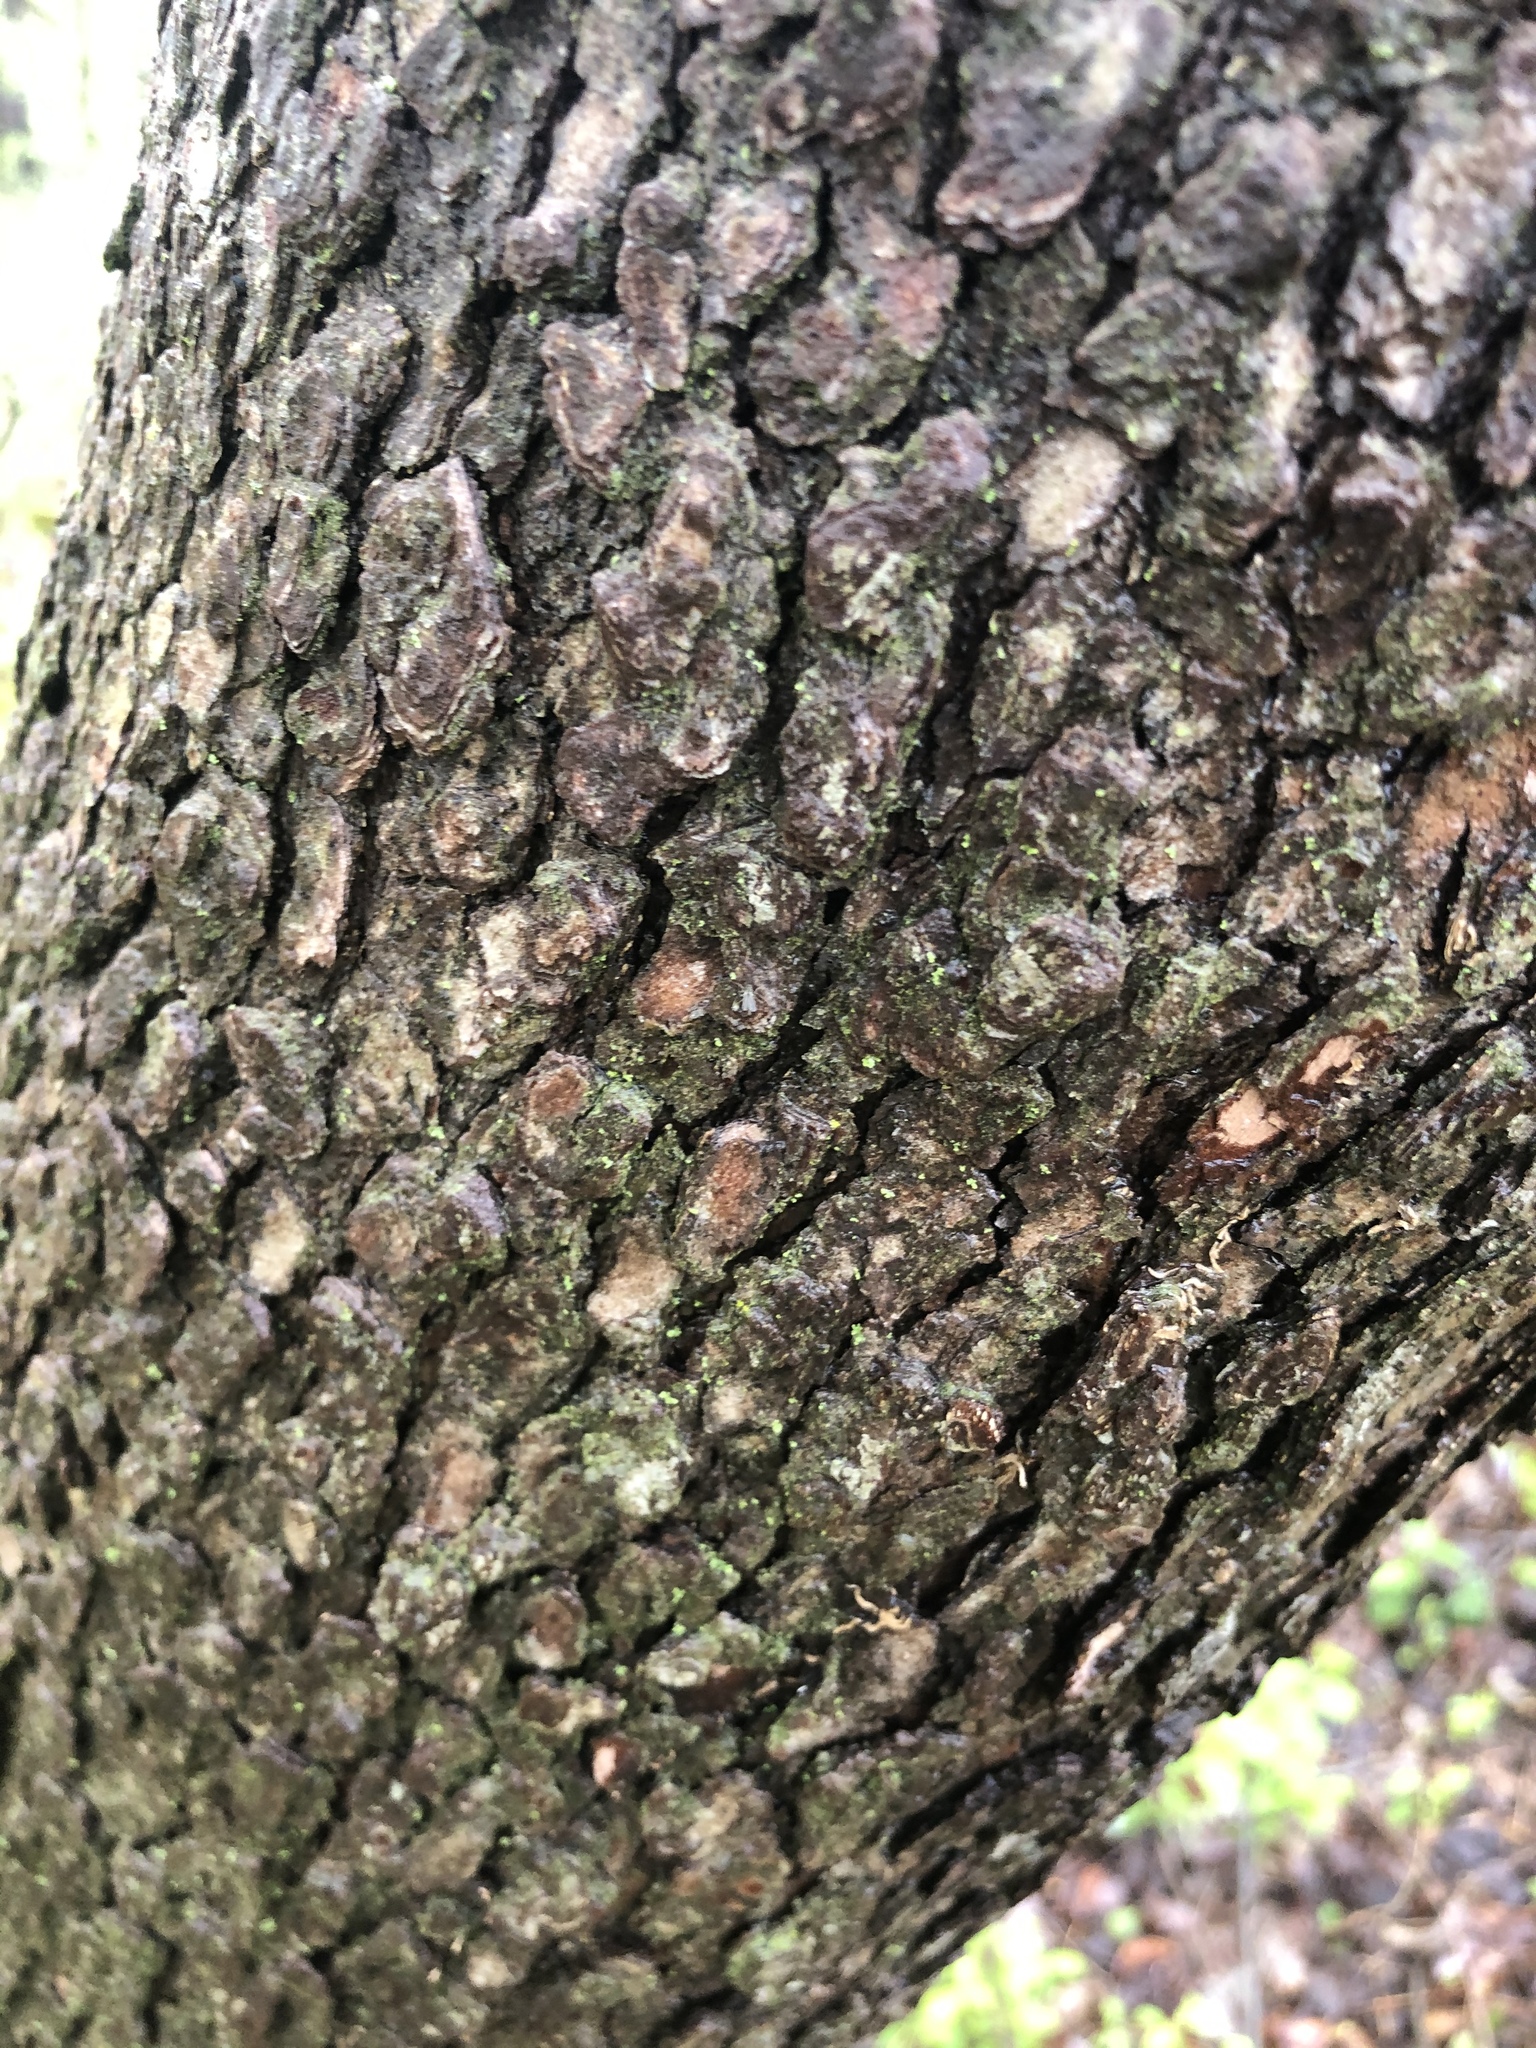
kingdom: Plantae
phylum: Tracheophyta
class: Magnoliopsida
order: Cornales
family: Cornaceae
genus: Cornus
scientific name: Cornus florida
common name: Flowering dogwood
